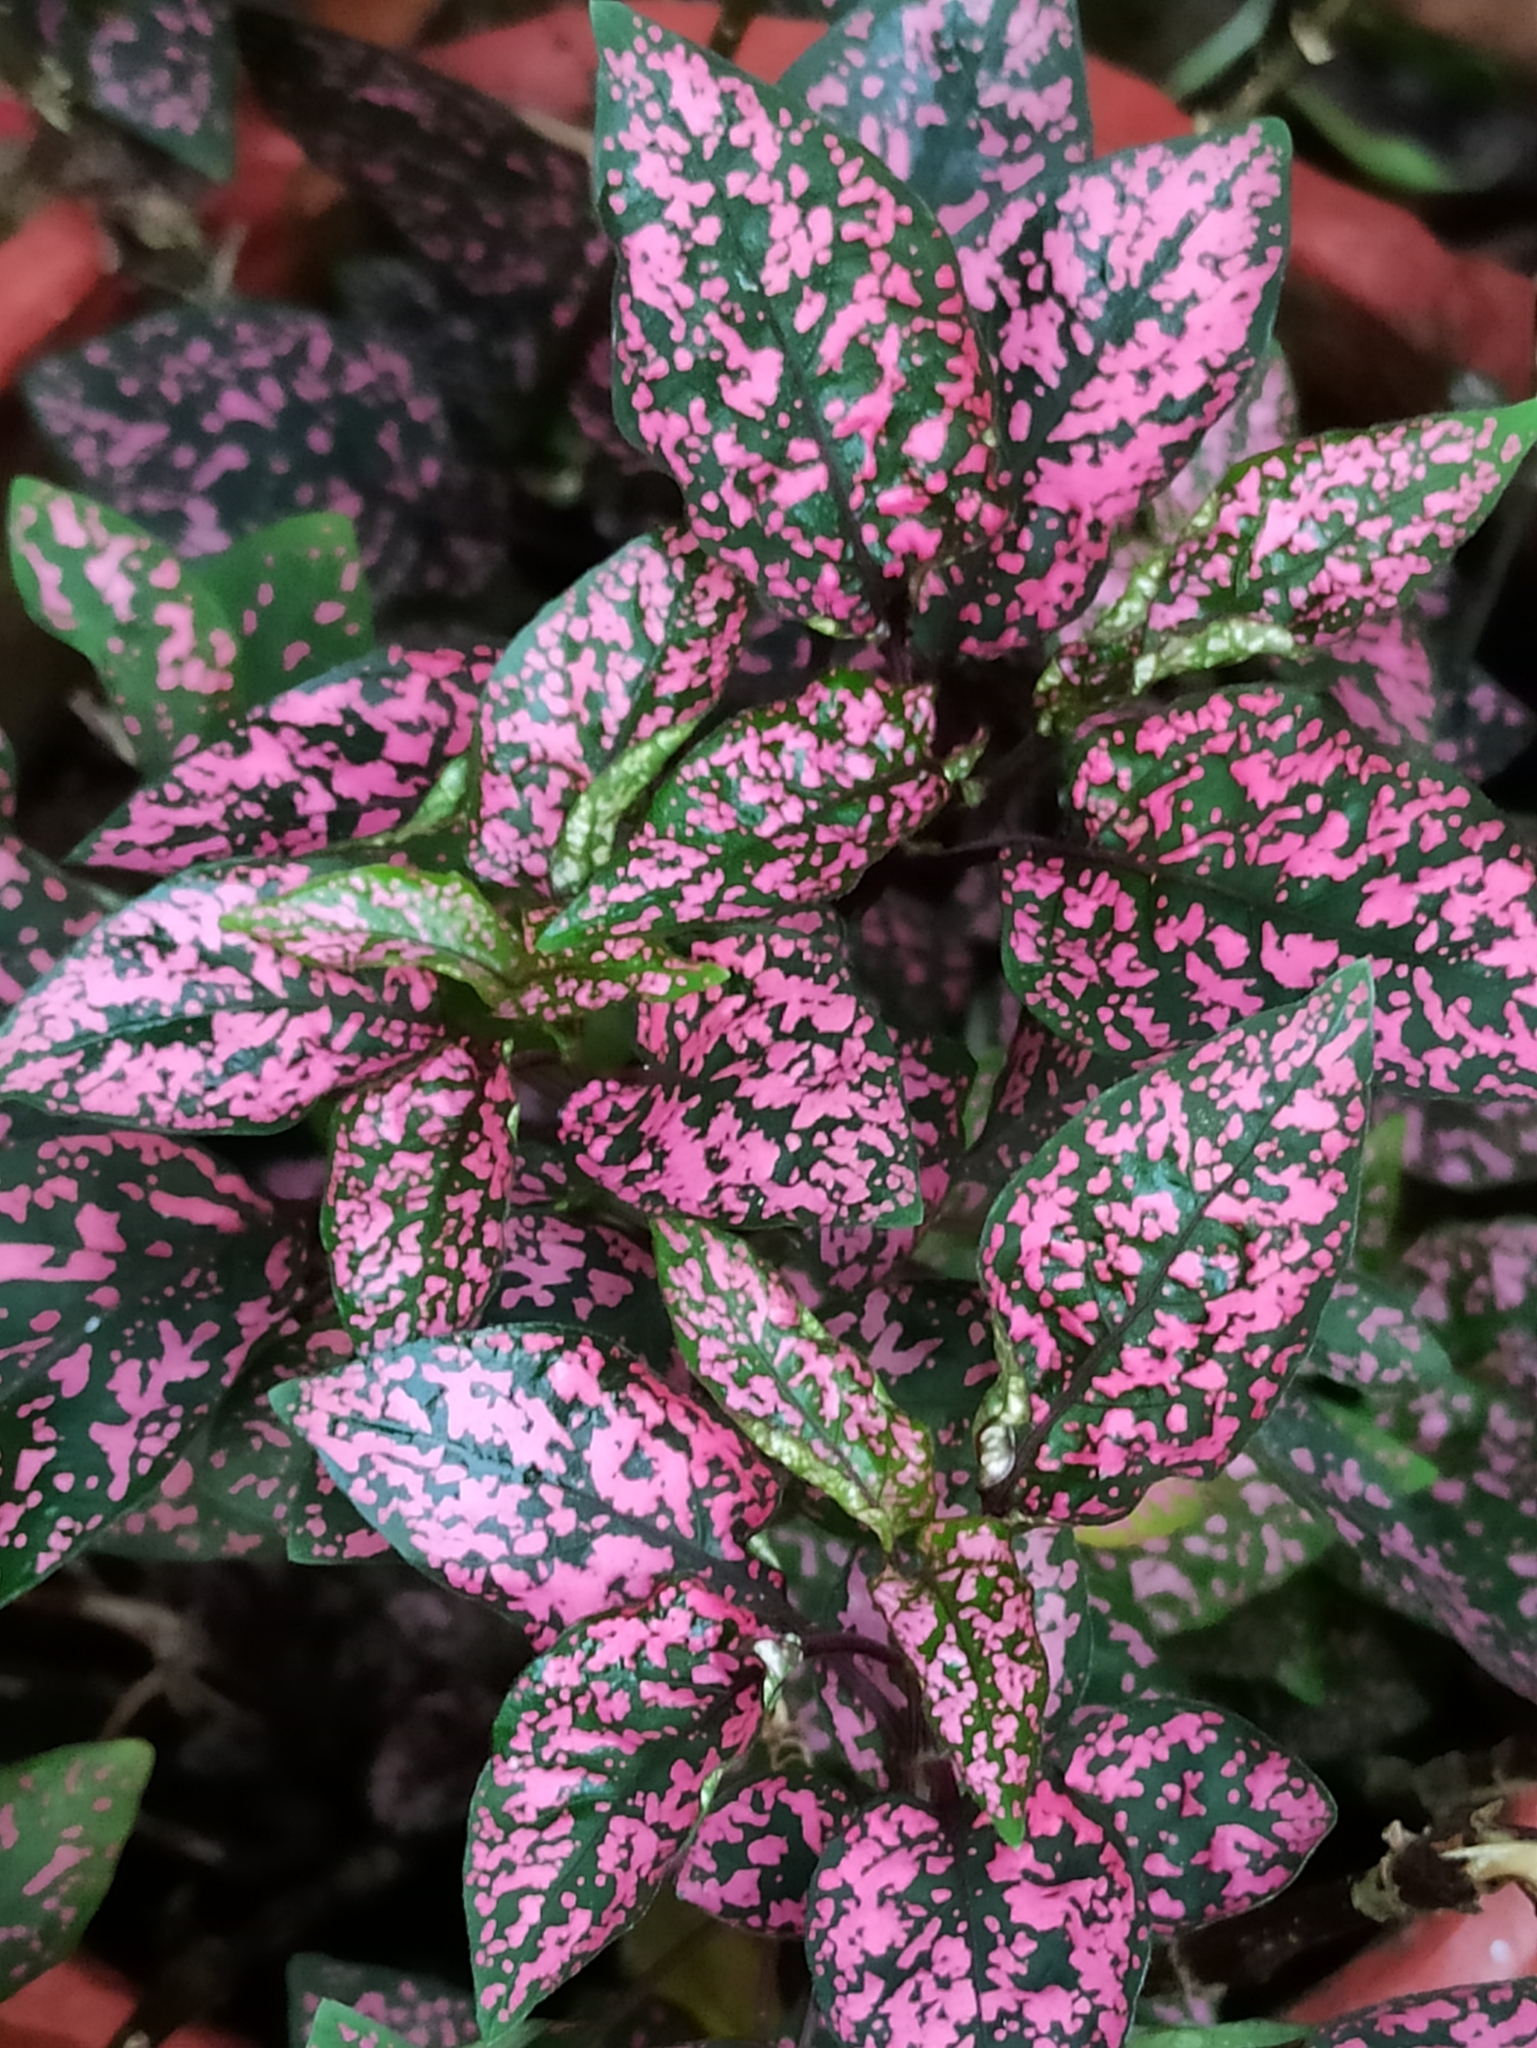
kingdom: Plantae
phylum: Tracheophyta
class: Magnoliopsida
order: Lamiales
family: Acanthaceae
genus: Hypoestes
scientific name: Hypoestes phyllostachya
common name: Polkadot-plant
